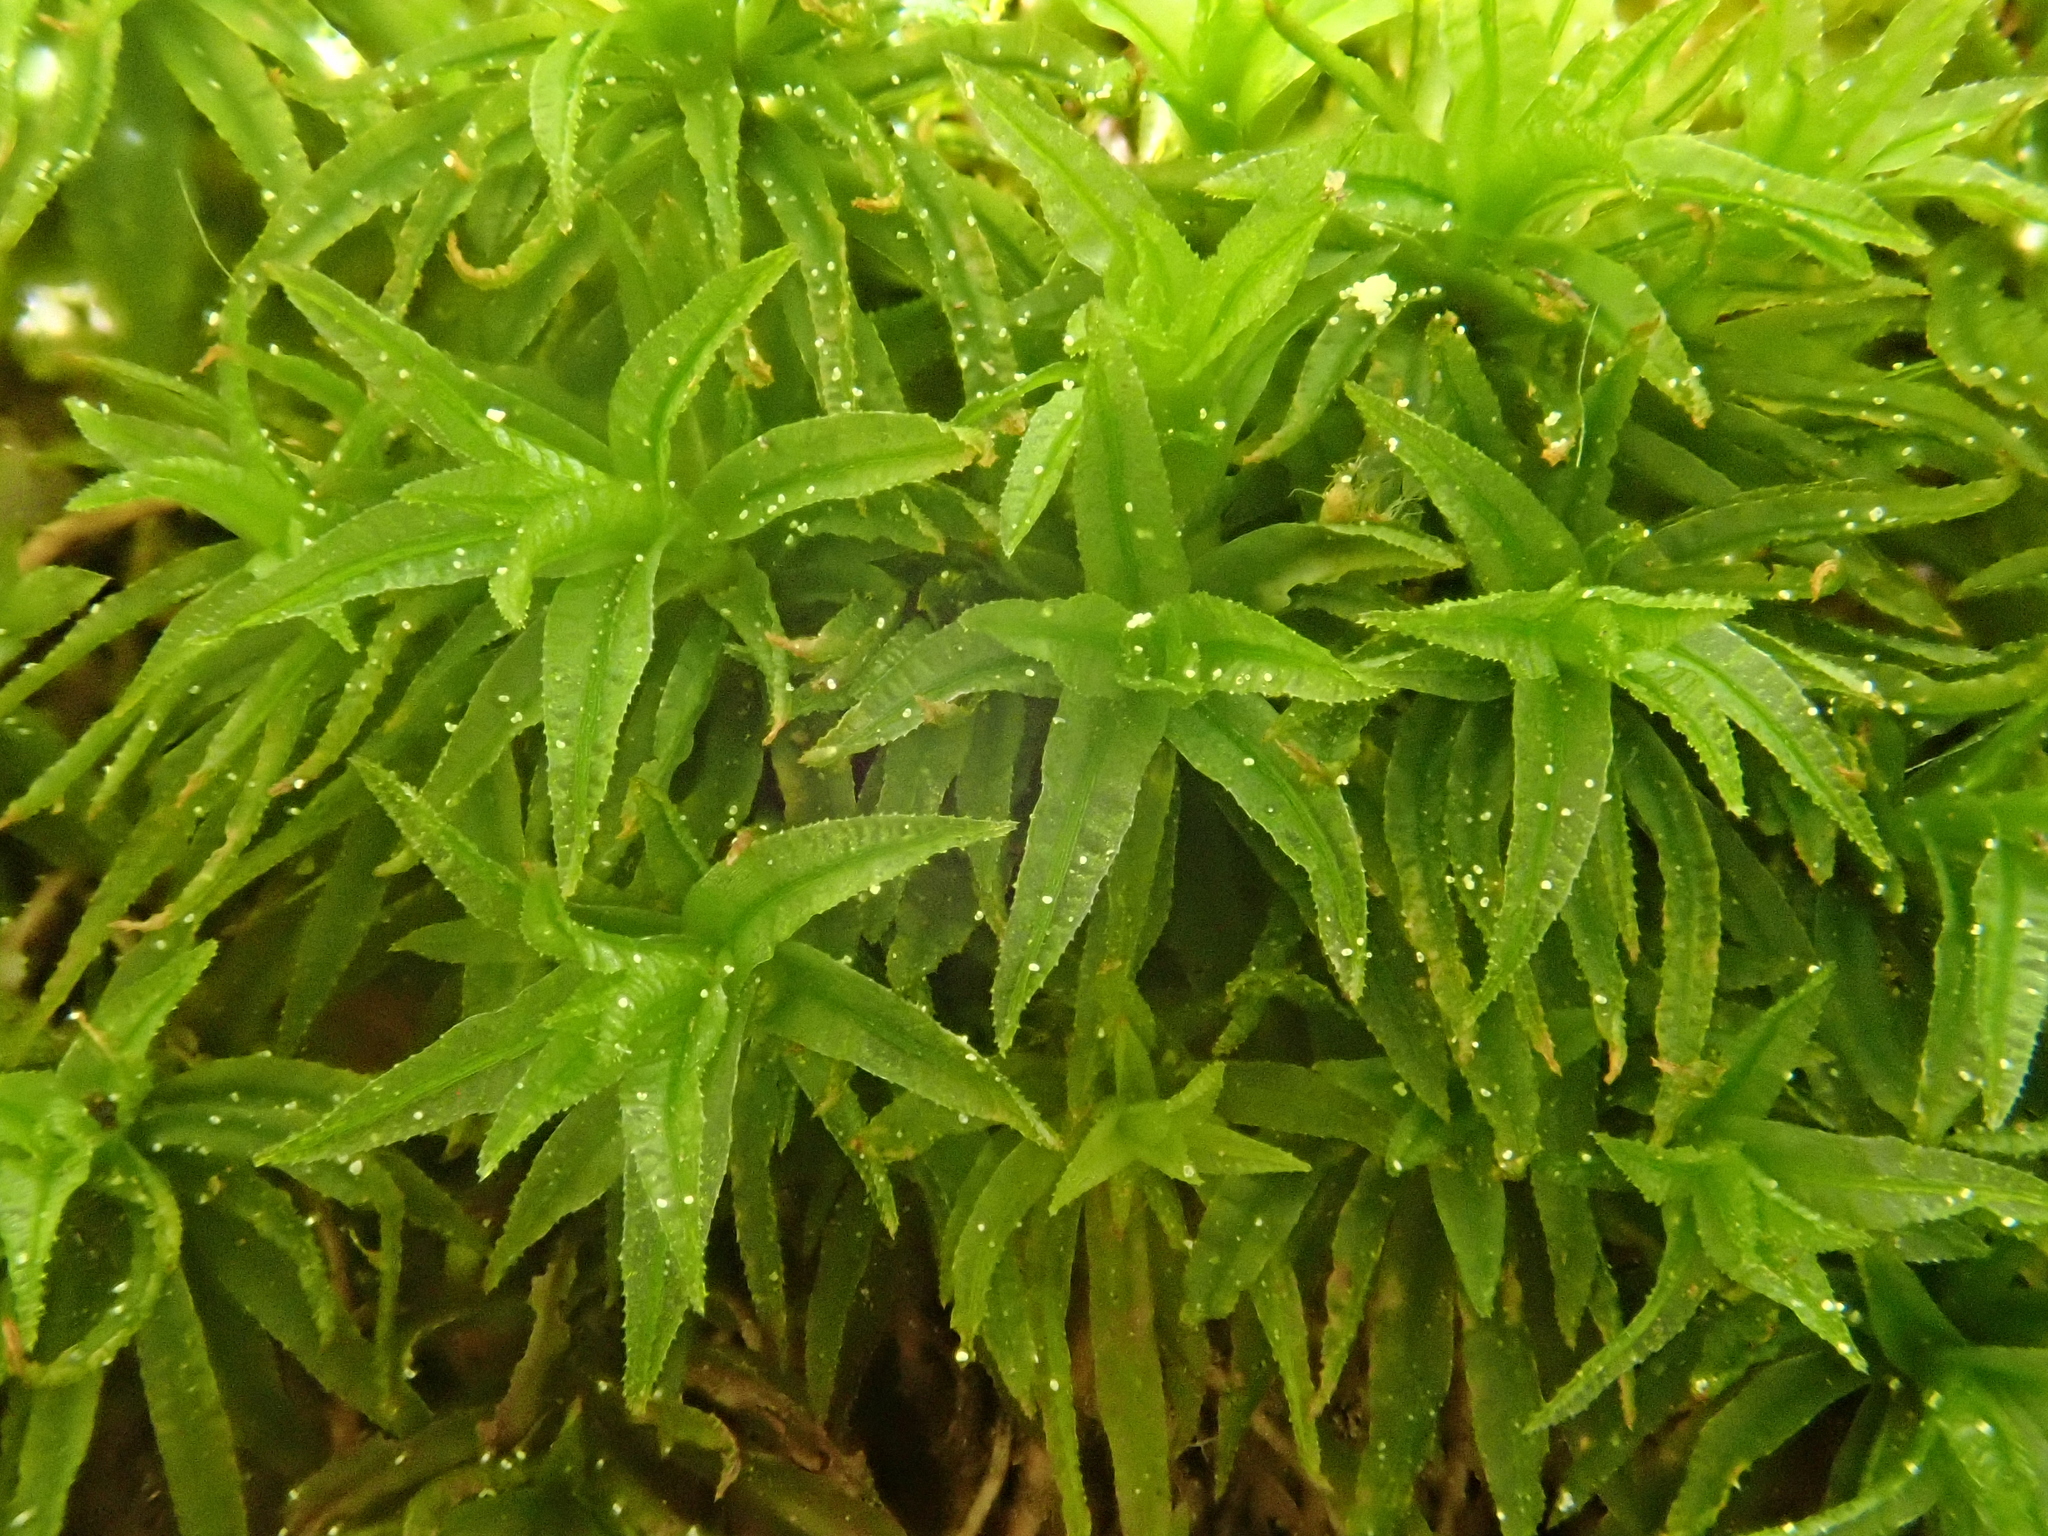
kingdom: Plantae
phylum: Bryophyta
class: Polytrichopsida
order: Polytrichales
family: Polytrichaceae
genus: Atrichum
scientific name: Atrichum undulatum
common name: Common smoothcap
